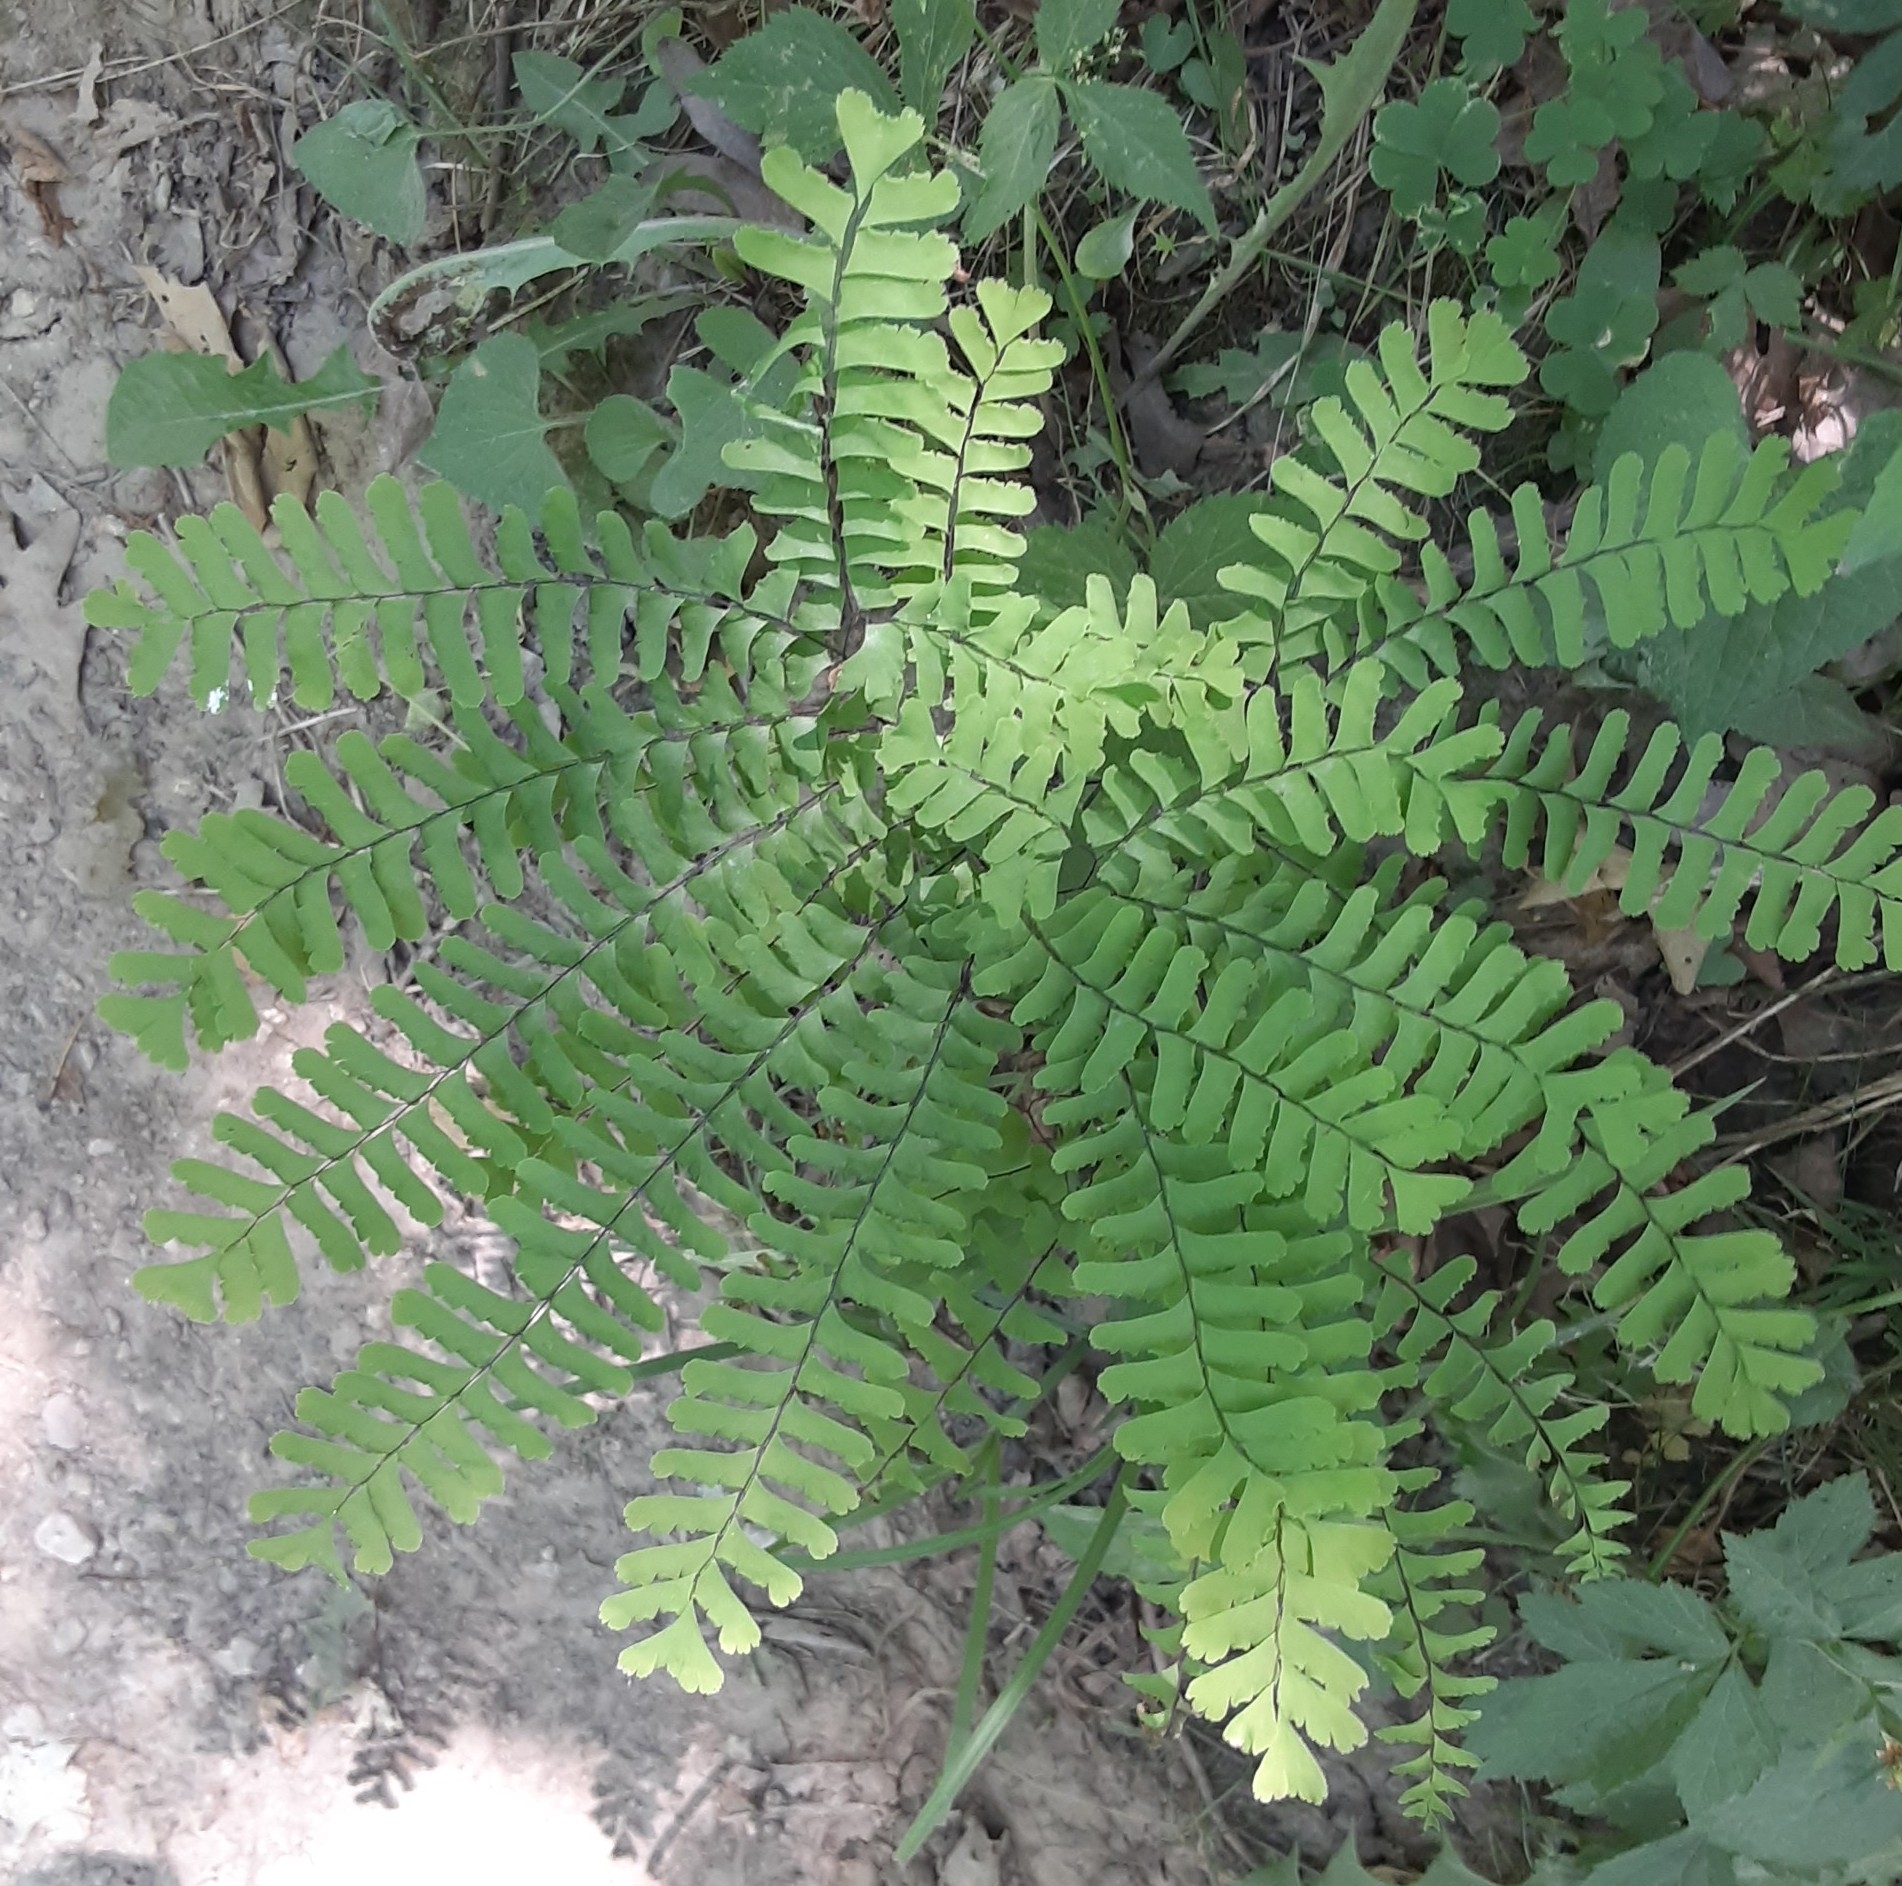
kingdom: Plantae
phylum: Tracheophyta
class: Polypodiopsida
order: Polypodiales
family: Pteridaceae
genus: Adiantum
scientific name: Adiantum pedatum
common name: Five-finger fern
